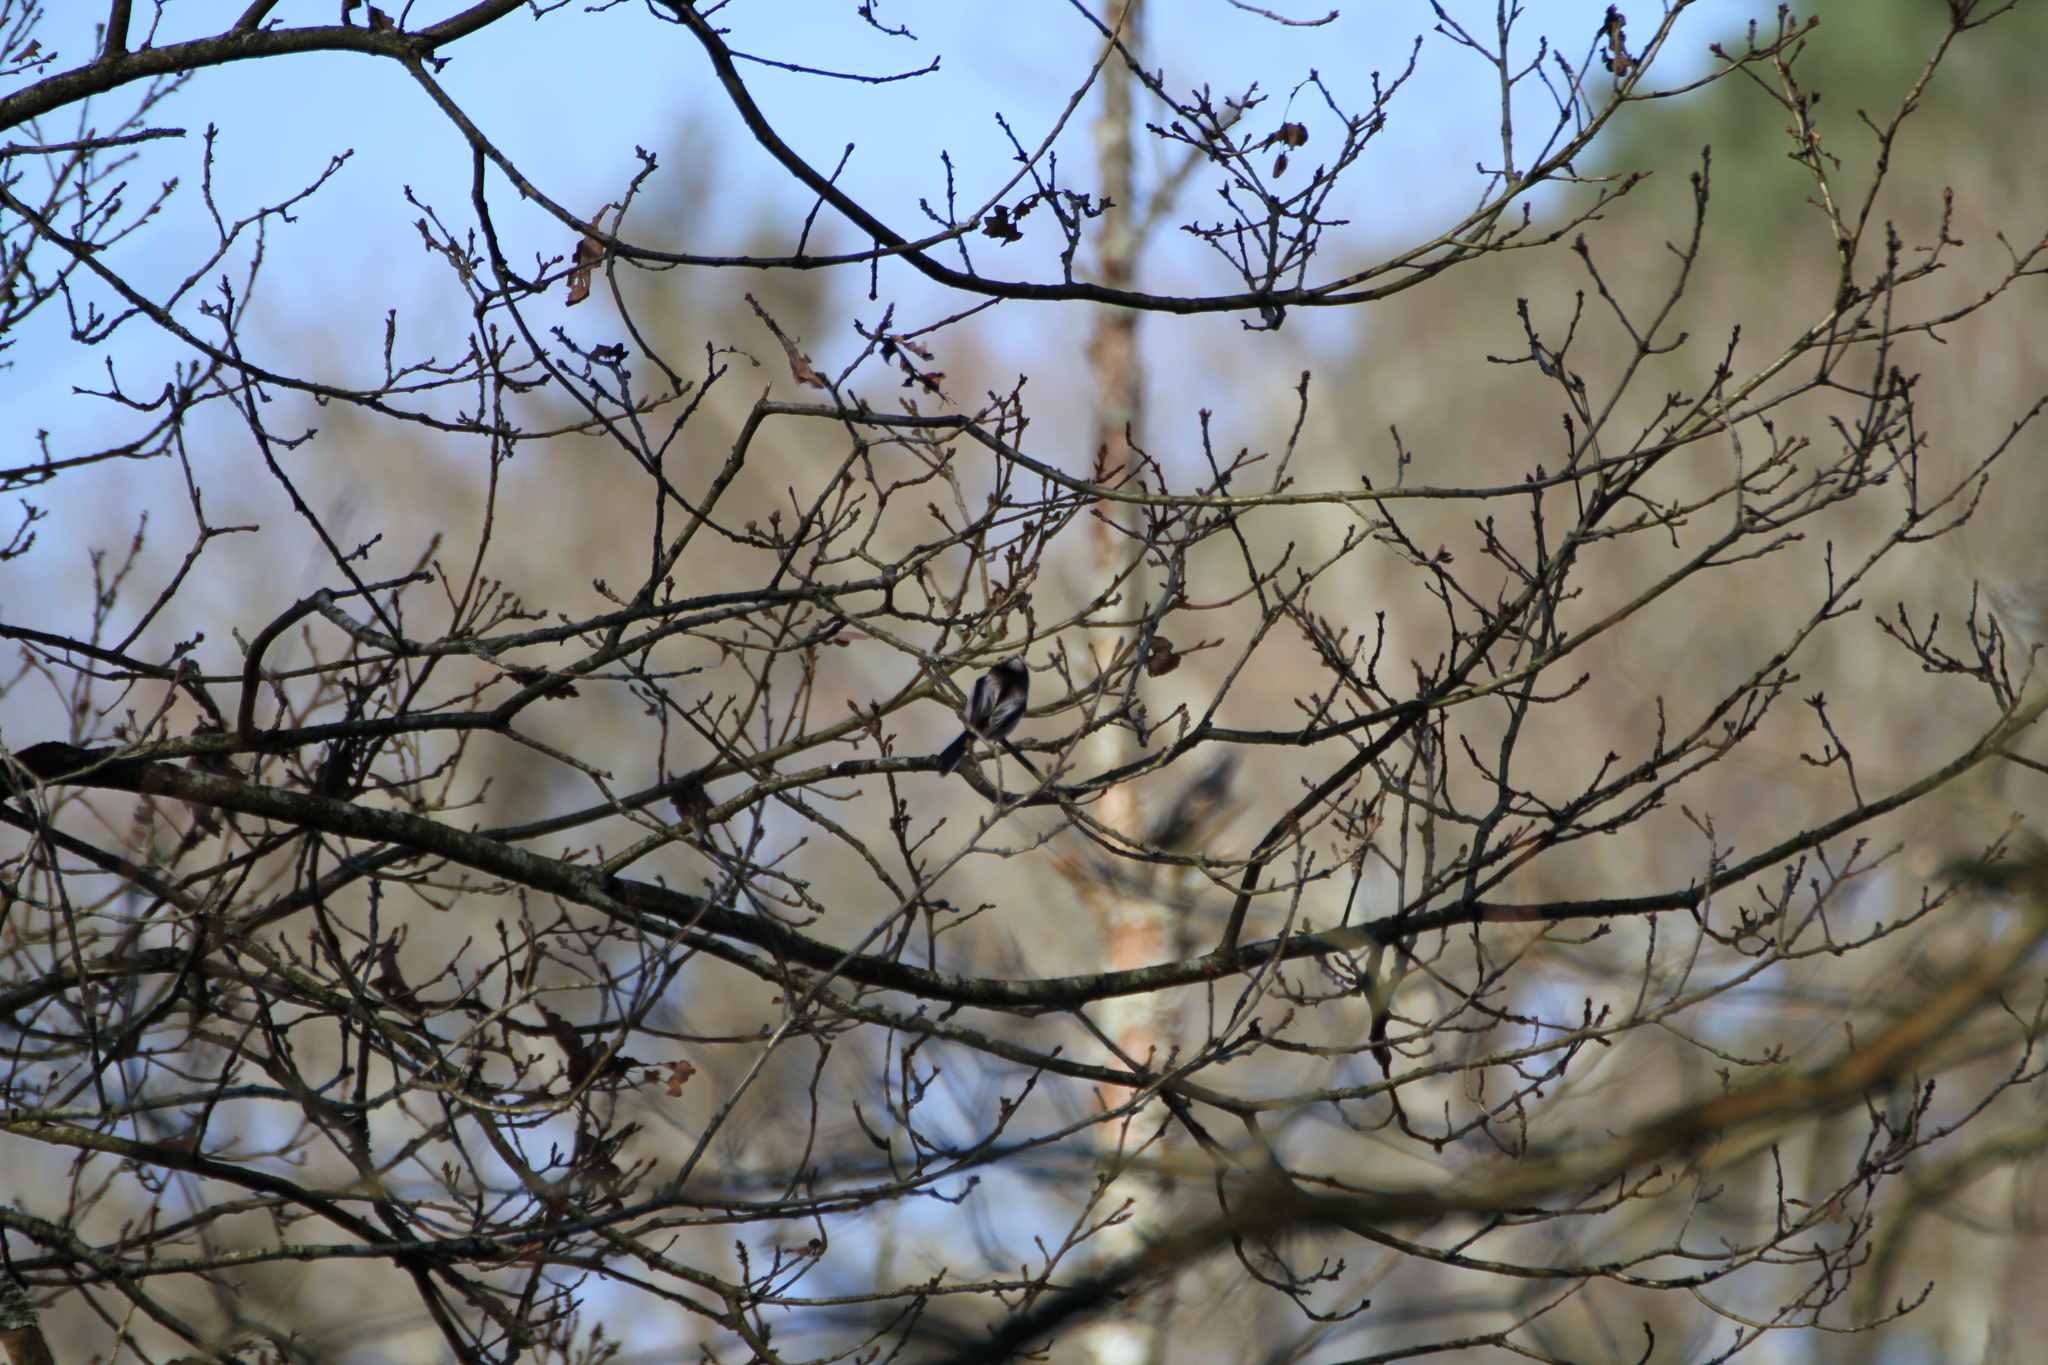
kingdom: Animalia
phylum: Chordata
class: Aves
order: Passeriformes
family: Aegithalidae
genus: Aegithalos
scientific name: Aegithalos caudatus
